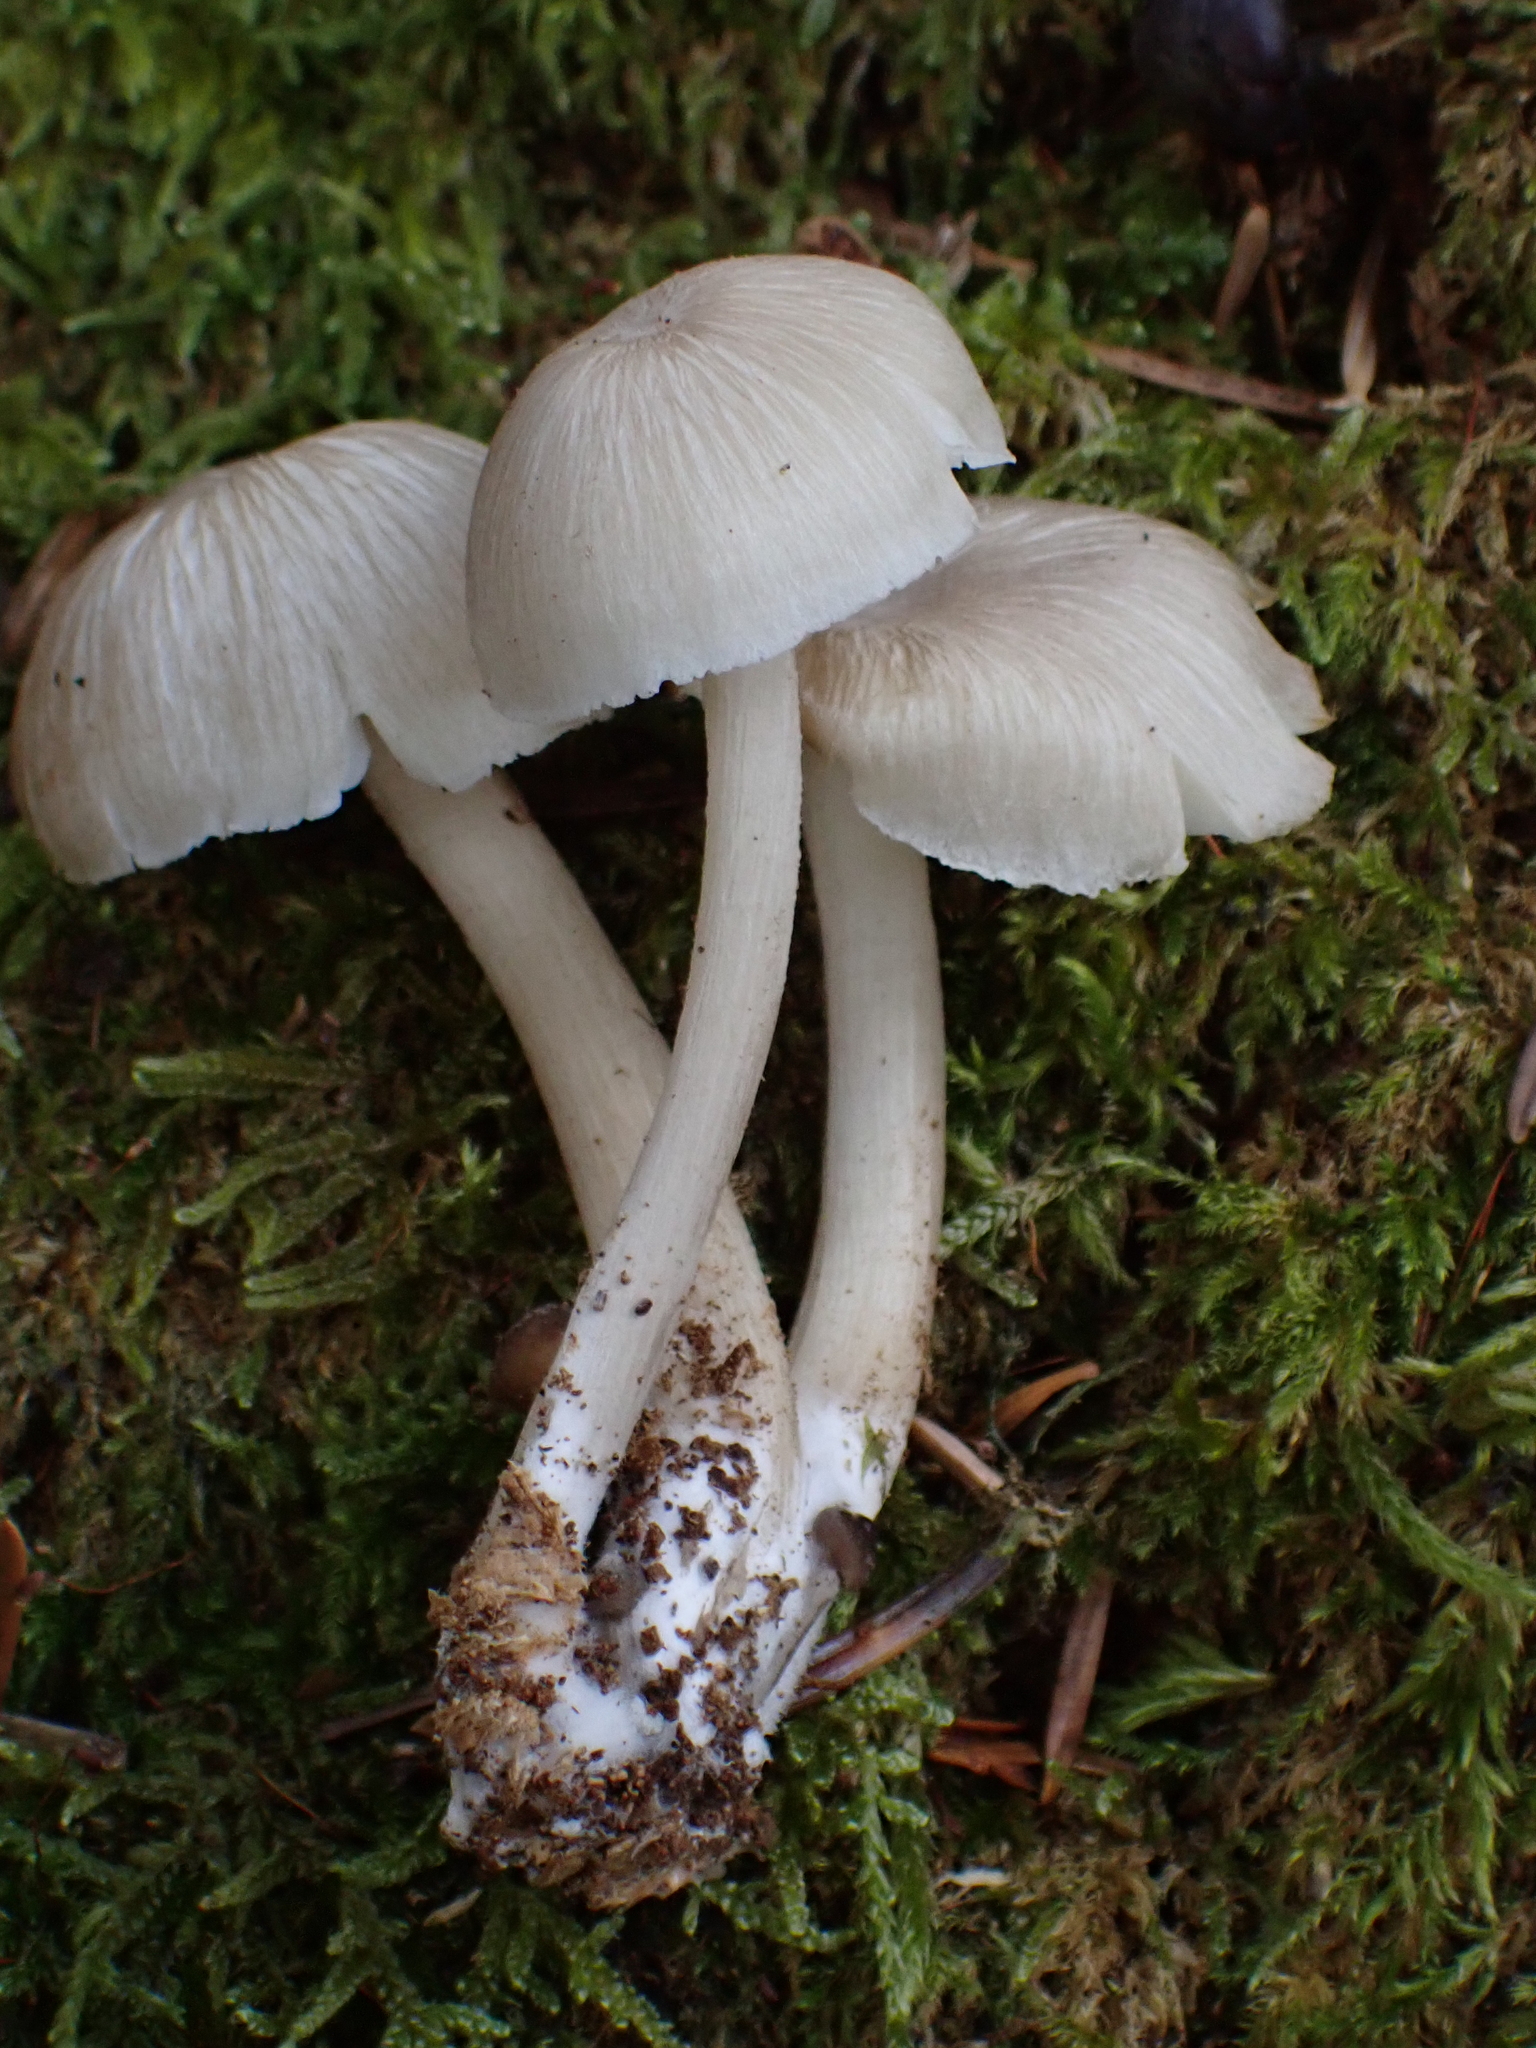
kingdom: Fungi
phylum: Basidiomycota
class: Agaricomycetes
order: Agaricales
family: Marasmiaceae
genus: Clitocybula
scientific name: Clitocybula lacerata
